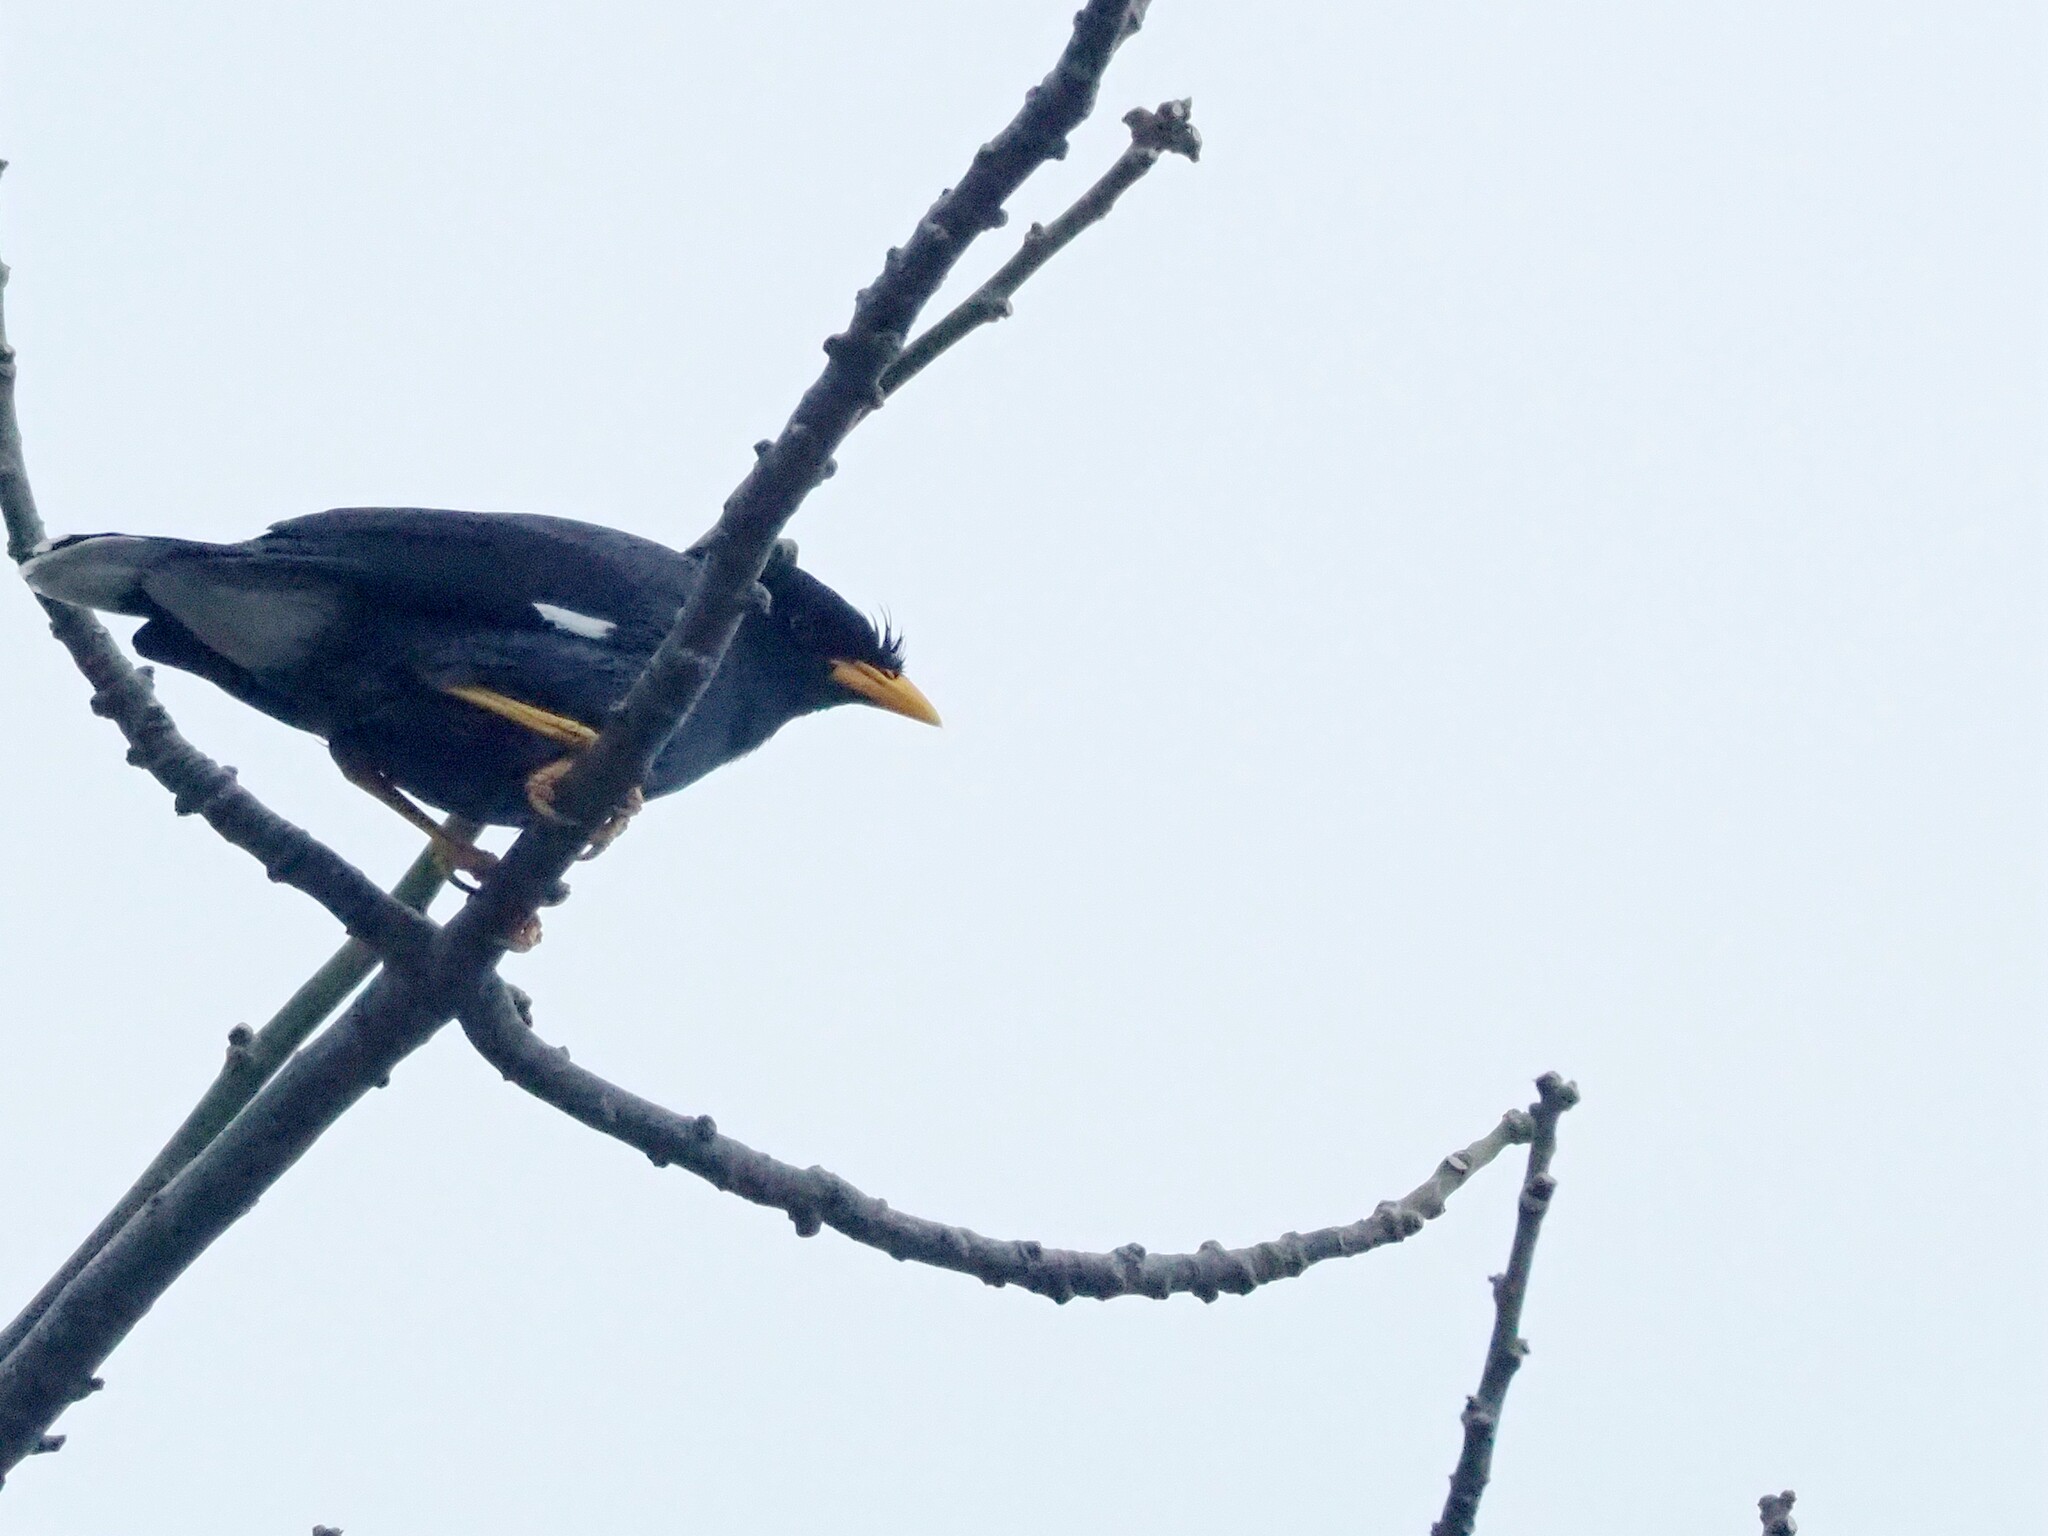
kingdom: Animalia
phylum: Chordata
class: Aves
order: Passeriformes
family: Sturnidae
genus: Acridotheres
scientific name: Acridotheres javanicus
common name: Javan myna
